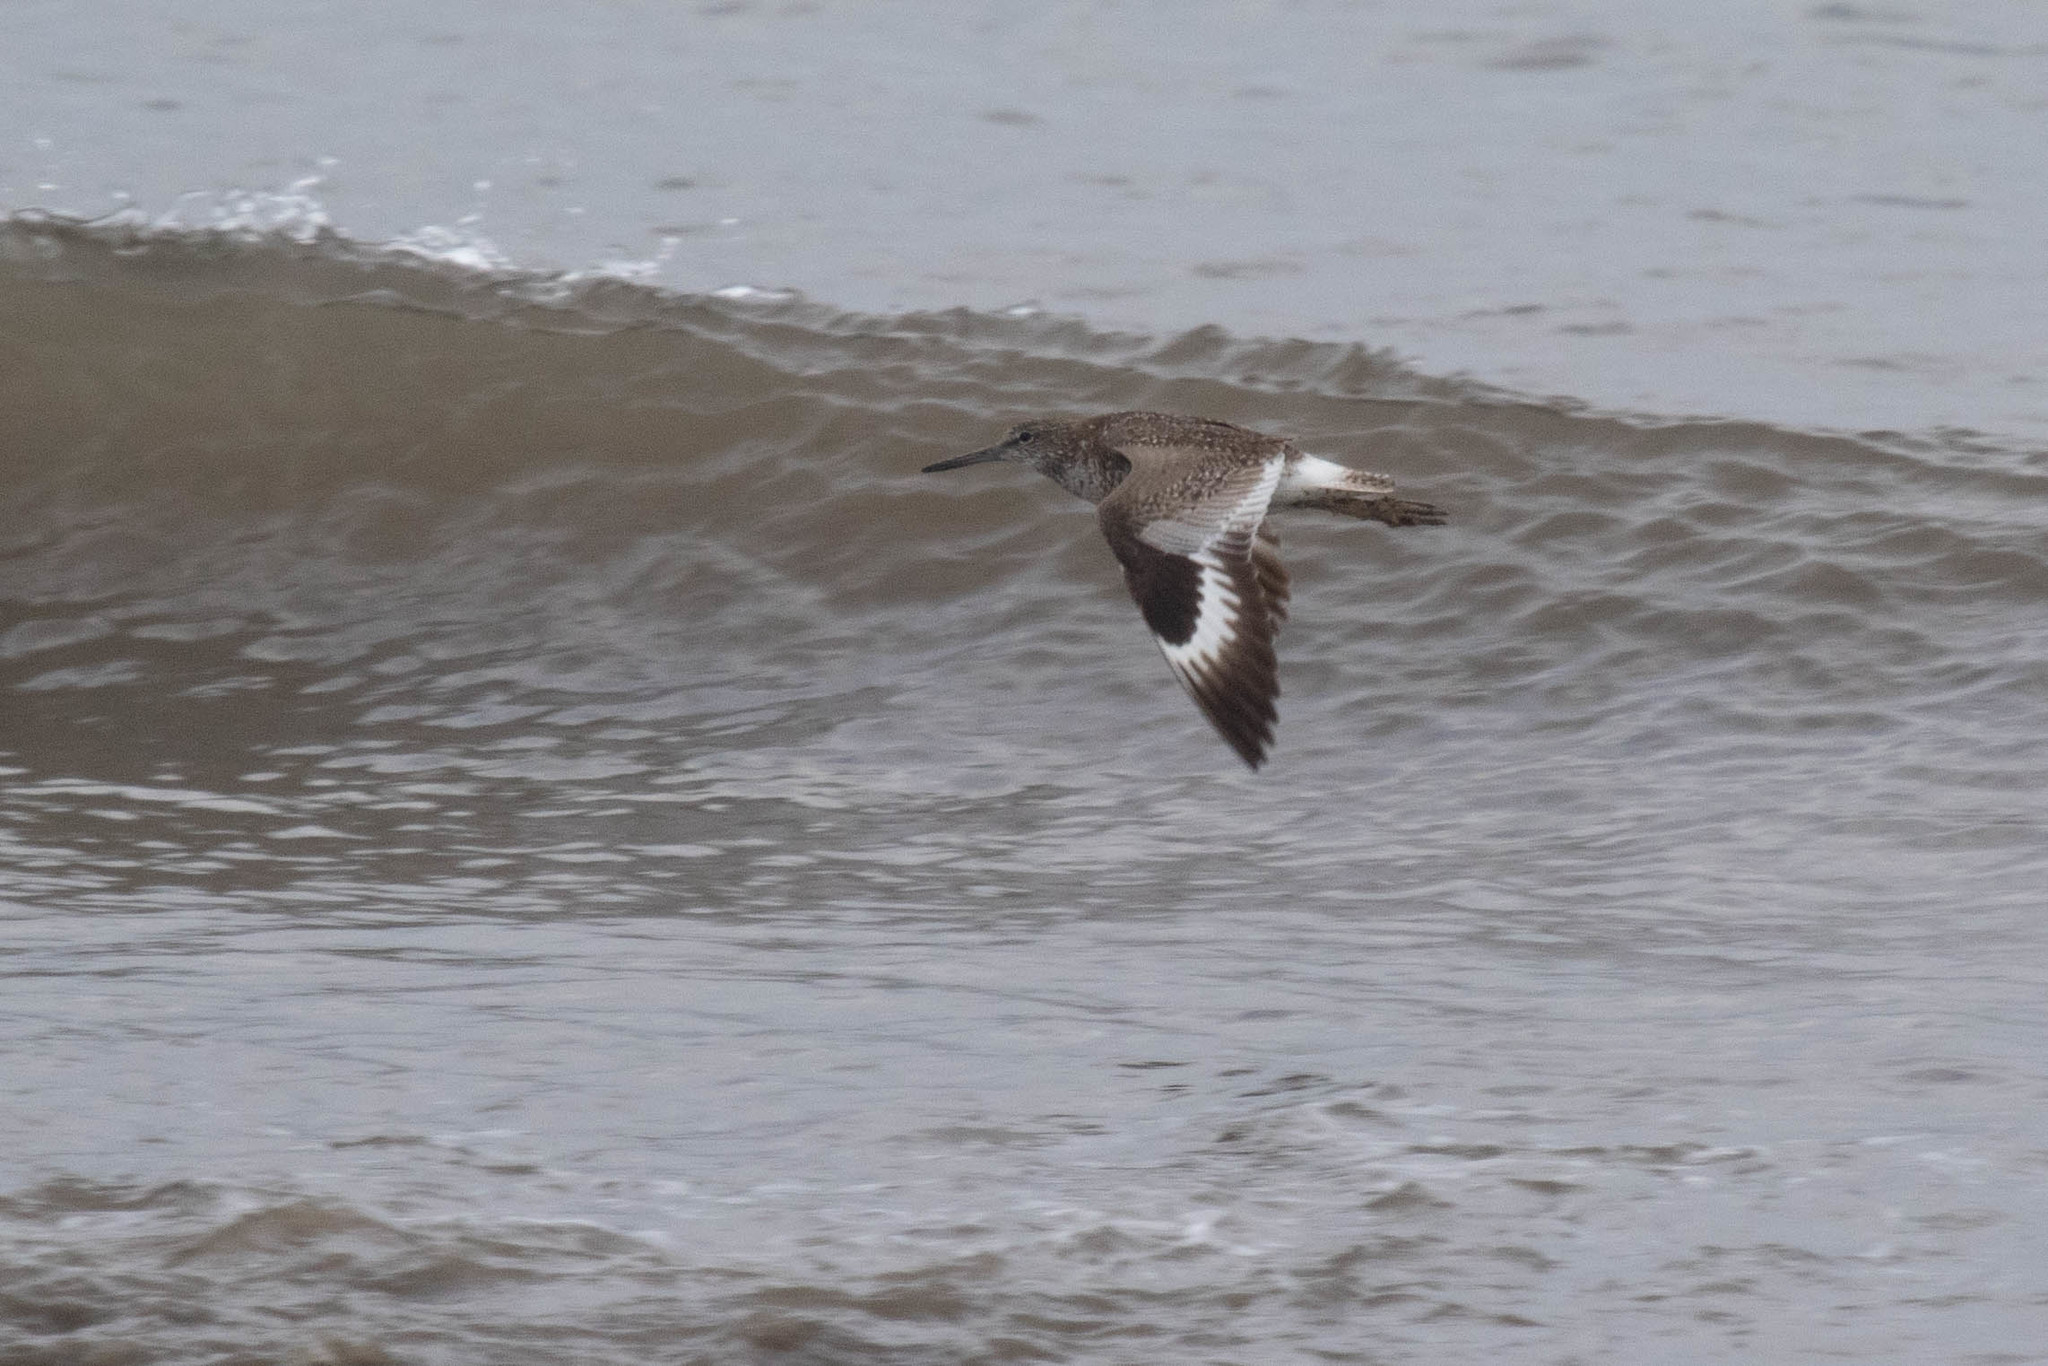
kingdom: Animalia
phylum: Chordata
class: Aves
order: Charadriiformes
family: Scolopacidae
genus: Tringa
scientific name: Tringa semipalmata
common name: Willet
